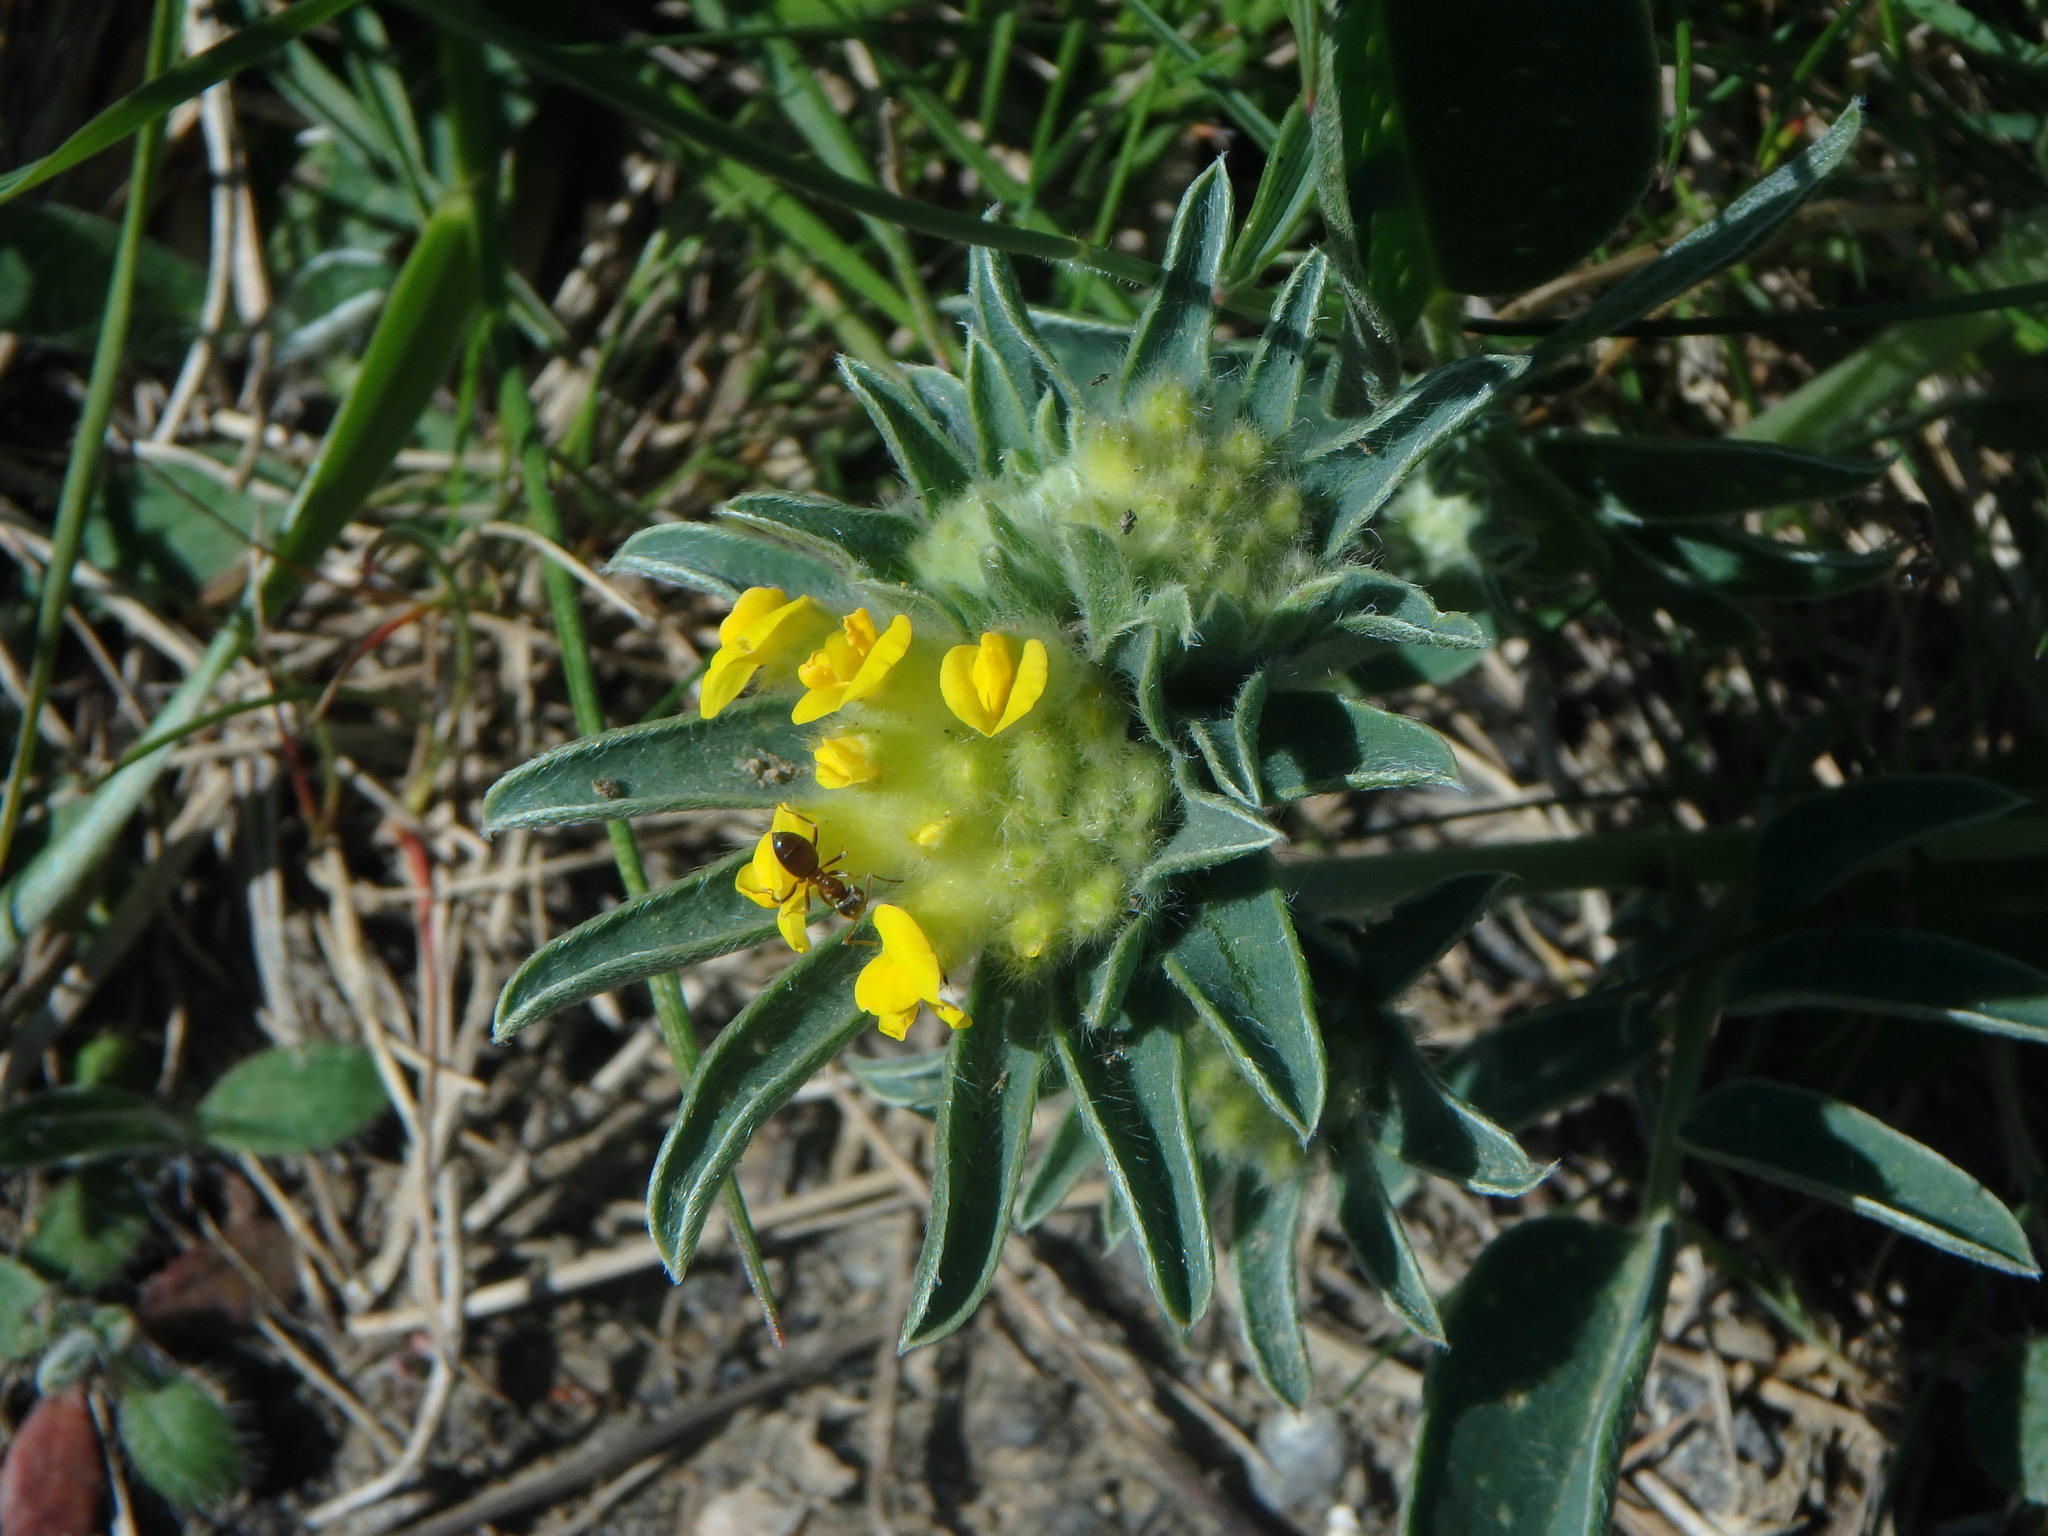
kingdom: Plantae
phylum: Tracheophyta
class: Magnoliopsida
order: Fabales
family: Fabaceae
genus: Anthyllis
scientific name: Anthyllis vulneraria
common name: Kidney vetch
